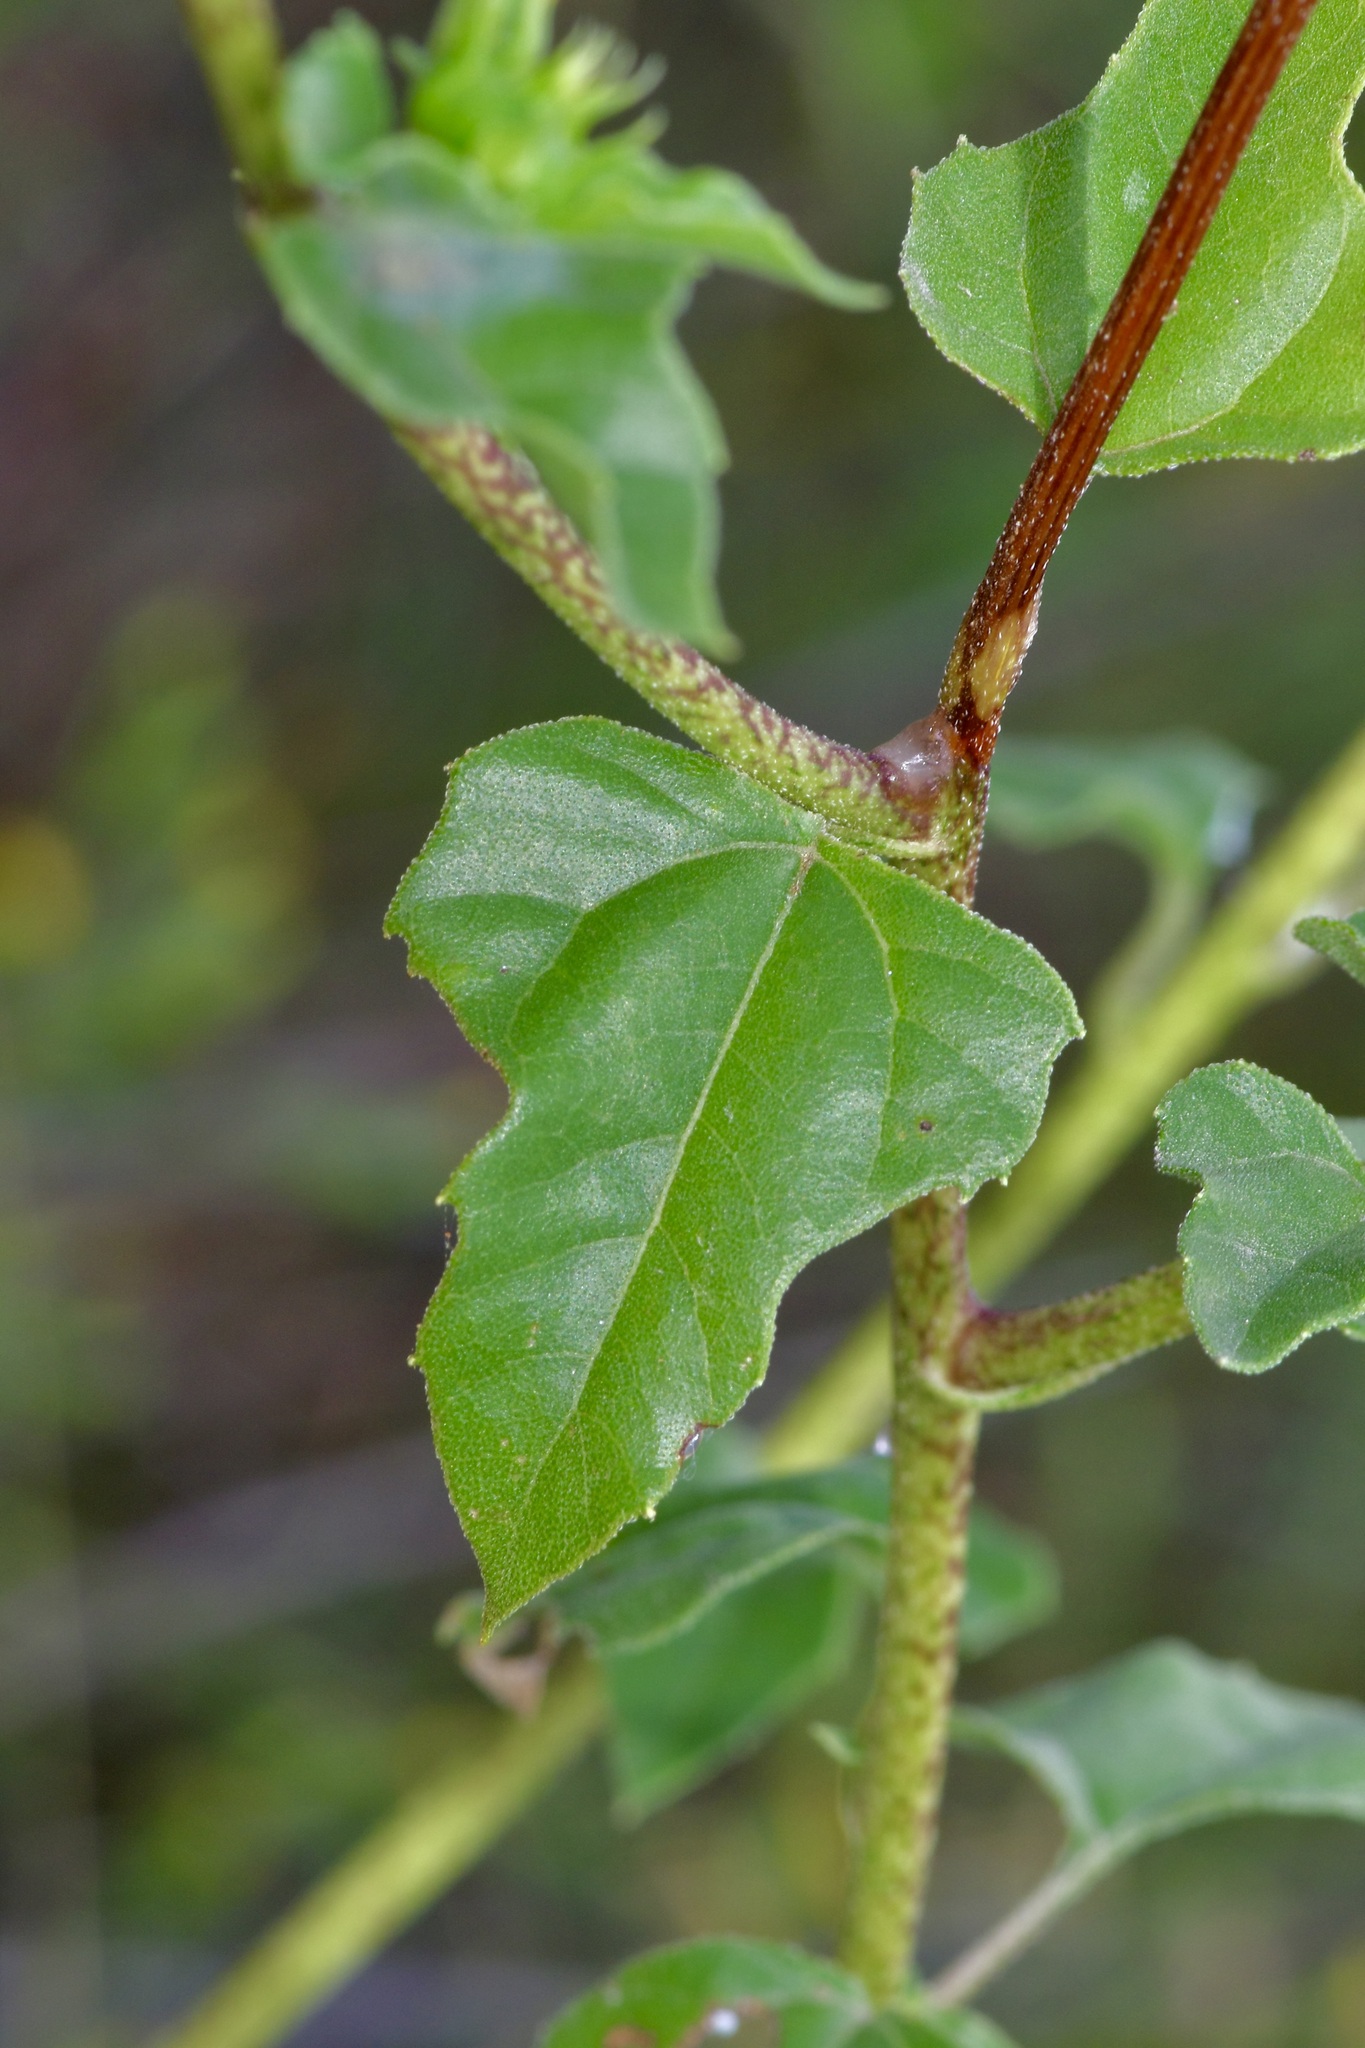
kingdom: Plantae
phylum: Tracheophyta
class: Magnoliopsida
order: Asterales
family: Asteraceae
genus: Helianthus
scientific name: Helianthus praecox
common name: Texas sunflower
